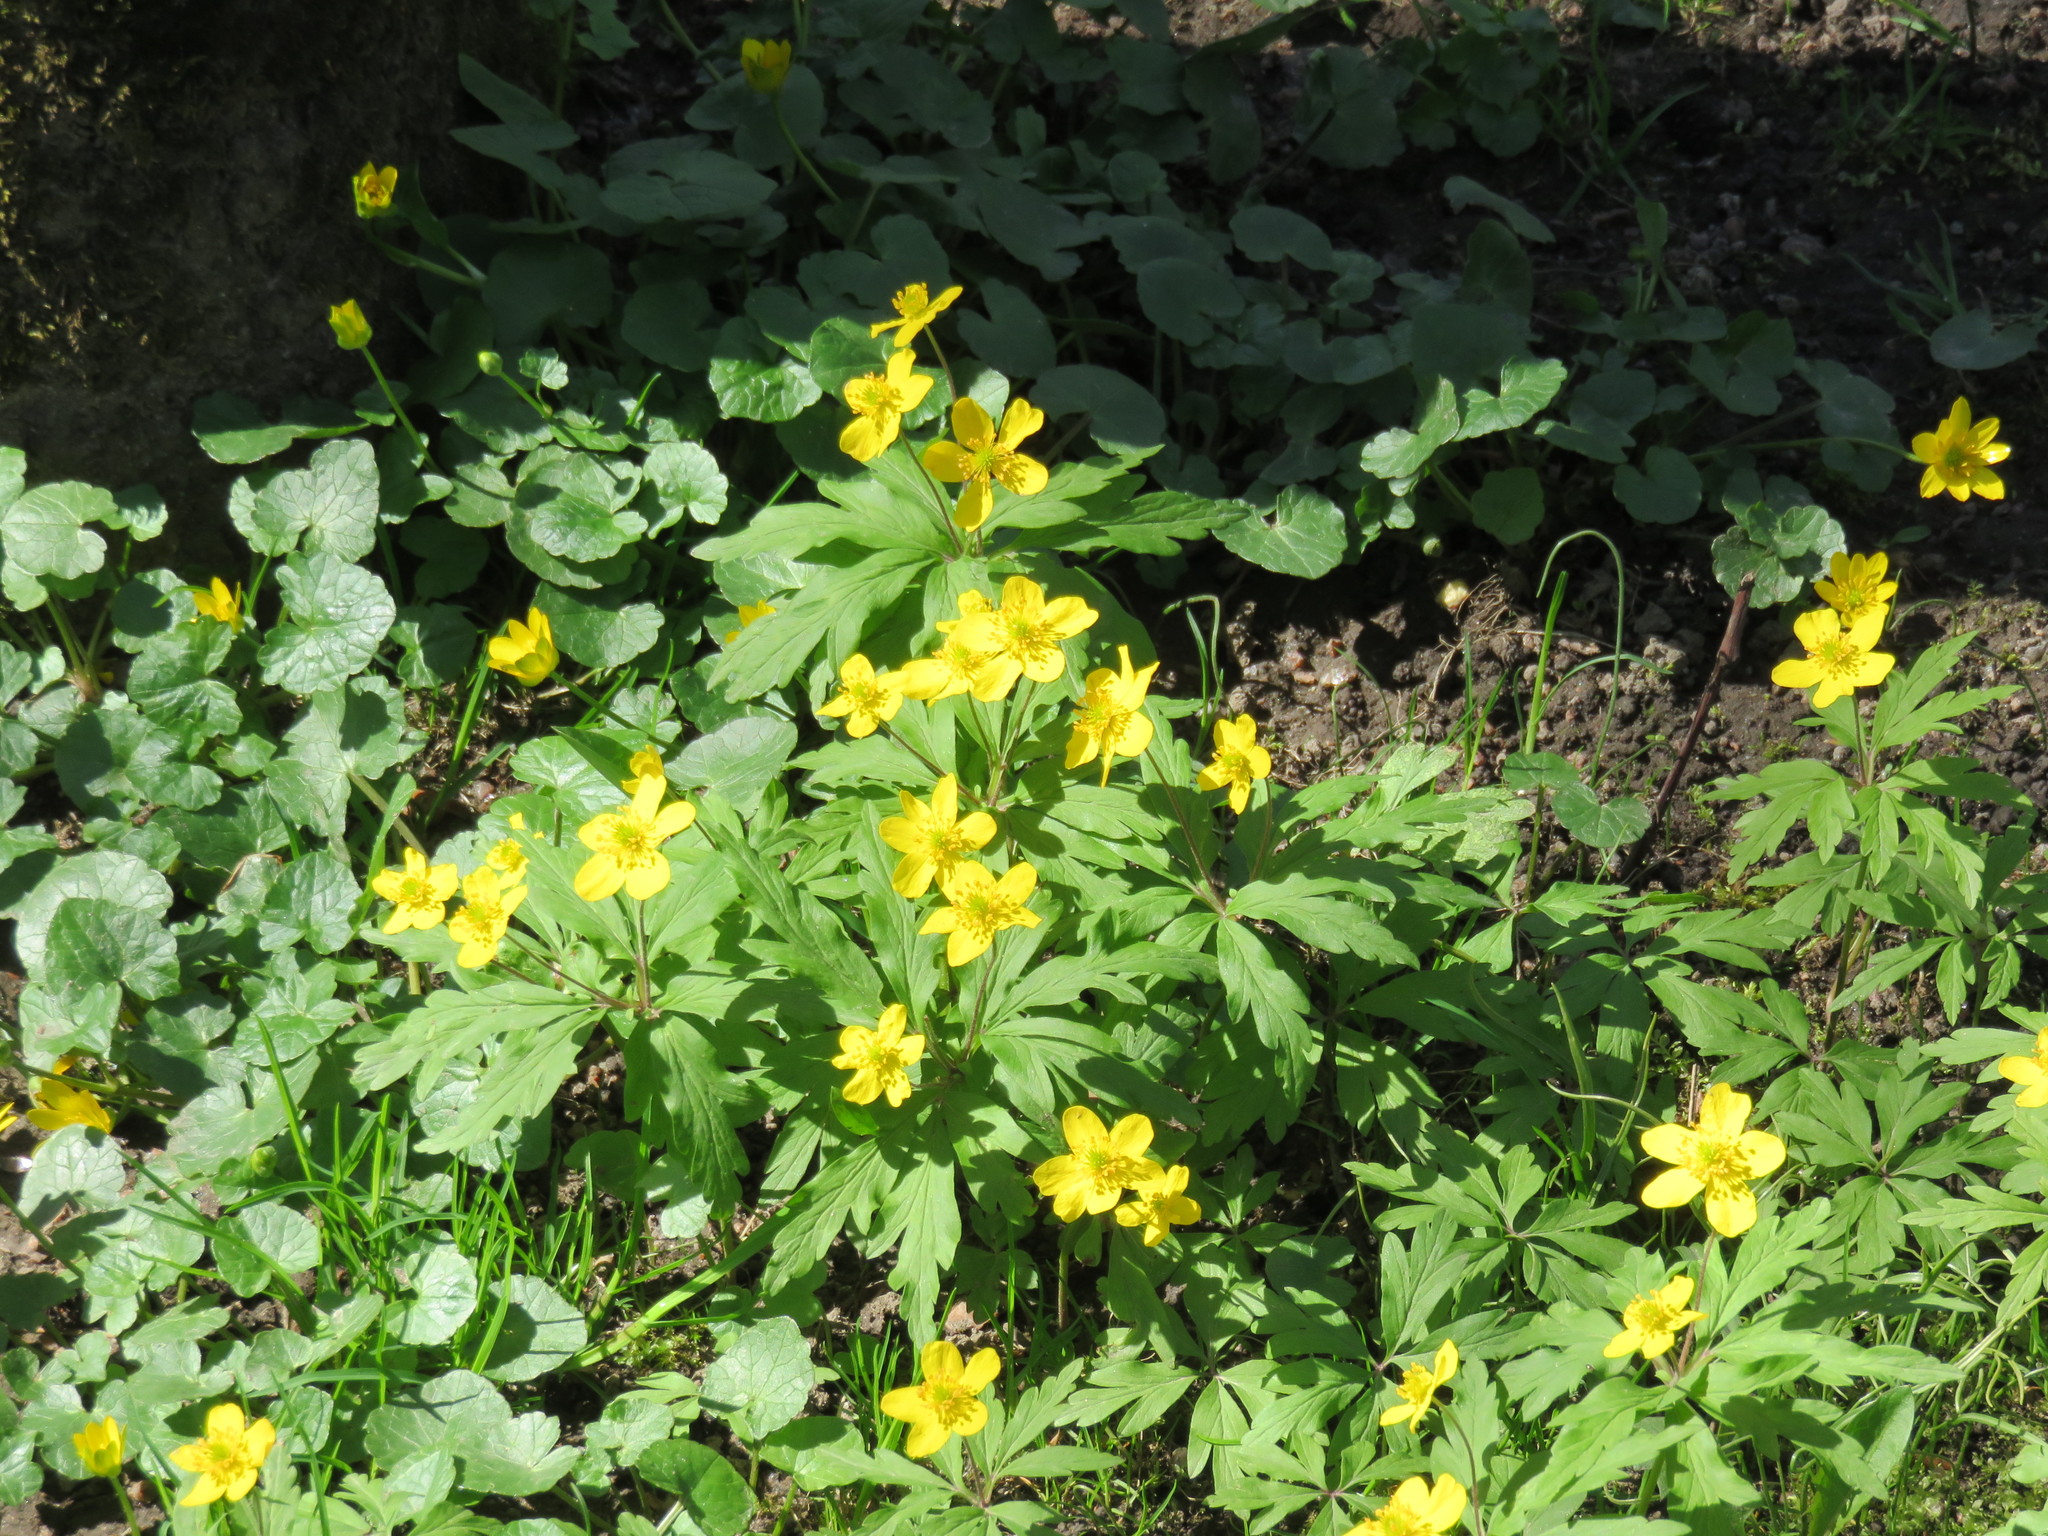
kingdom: Plantae
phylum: Tracheophyta
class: Magnoliopsida
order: Ranunculales
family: Ranunculaceae
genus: Anemone
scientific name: Anemone ranunculoides
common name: Yellow anemone
